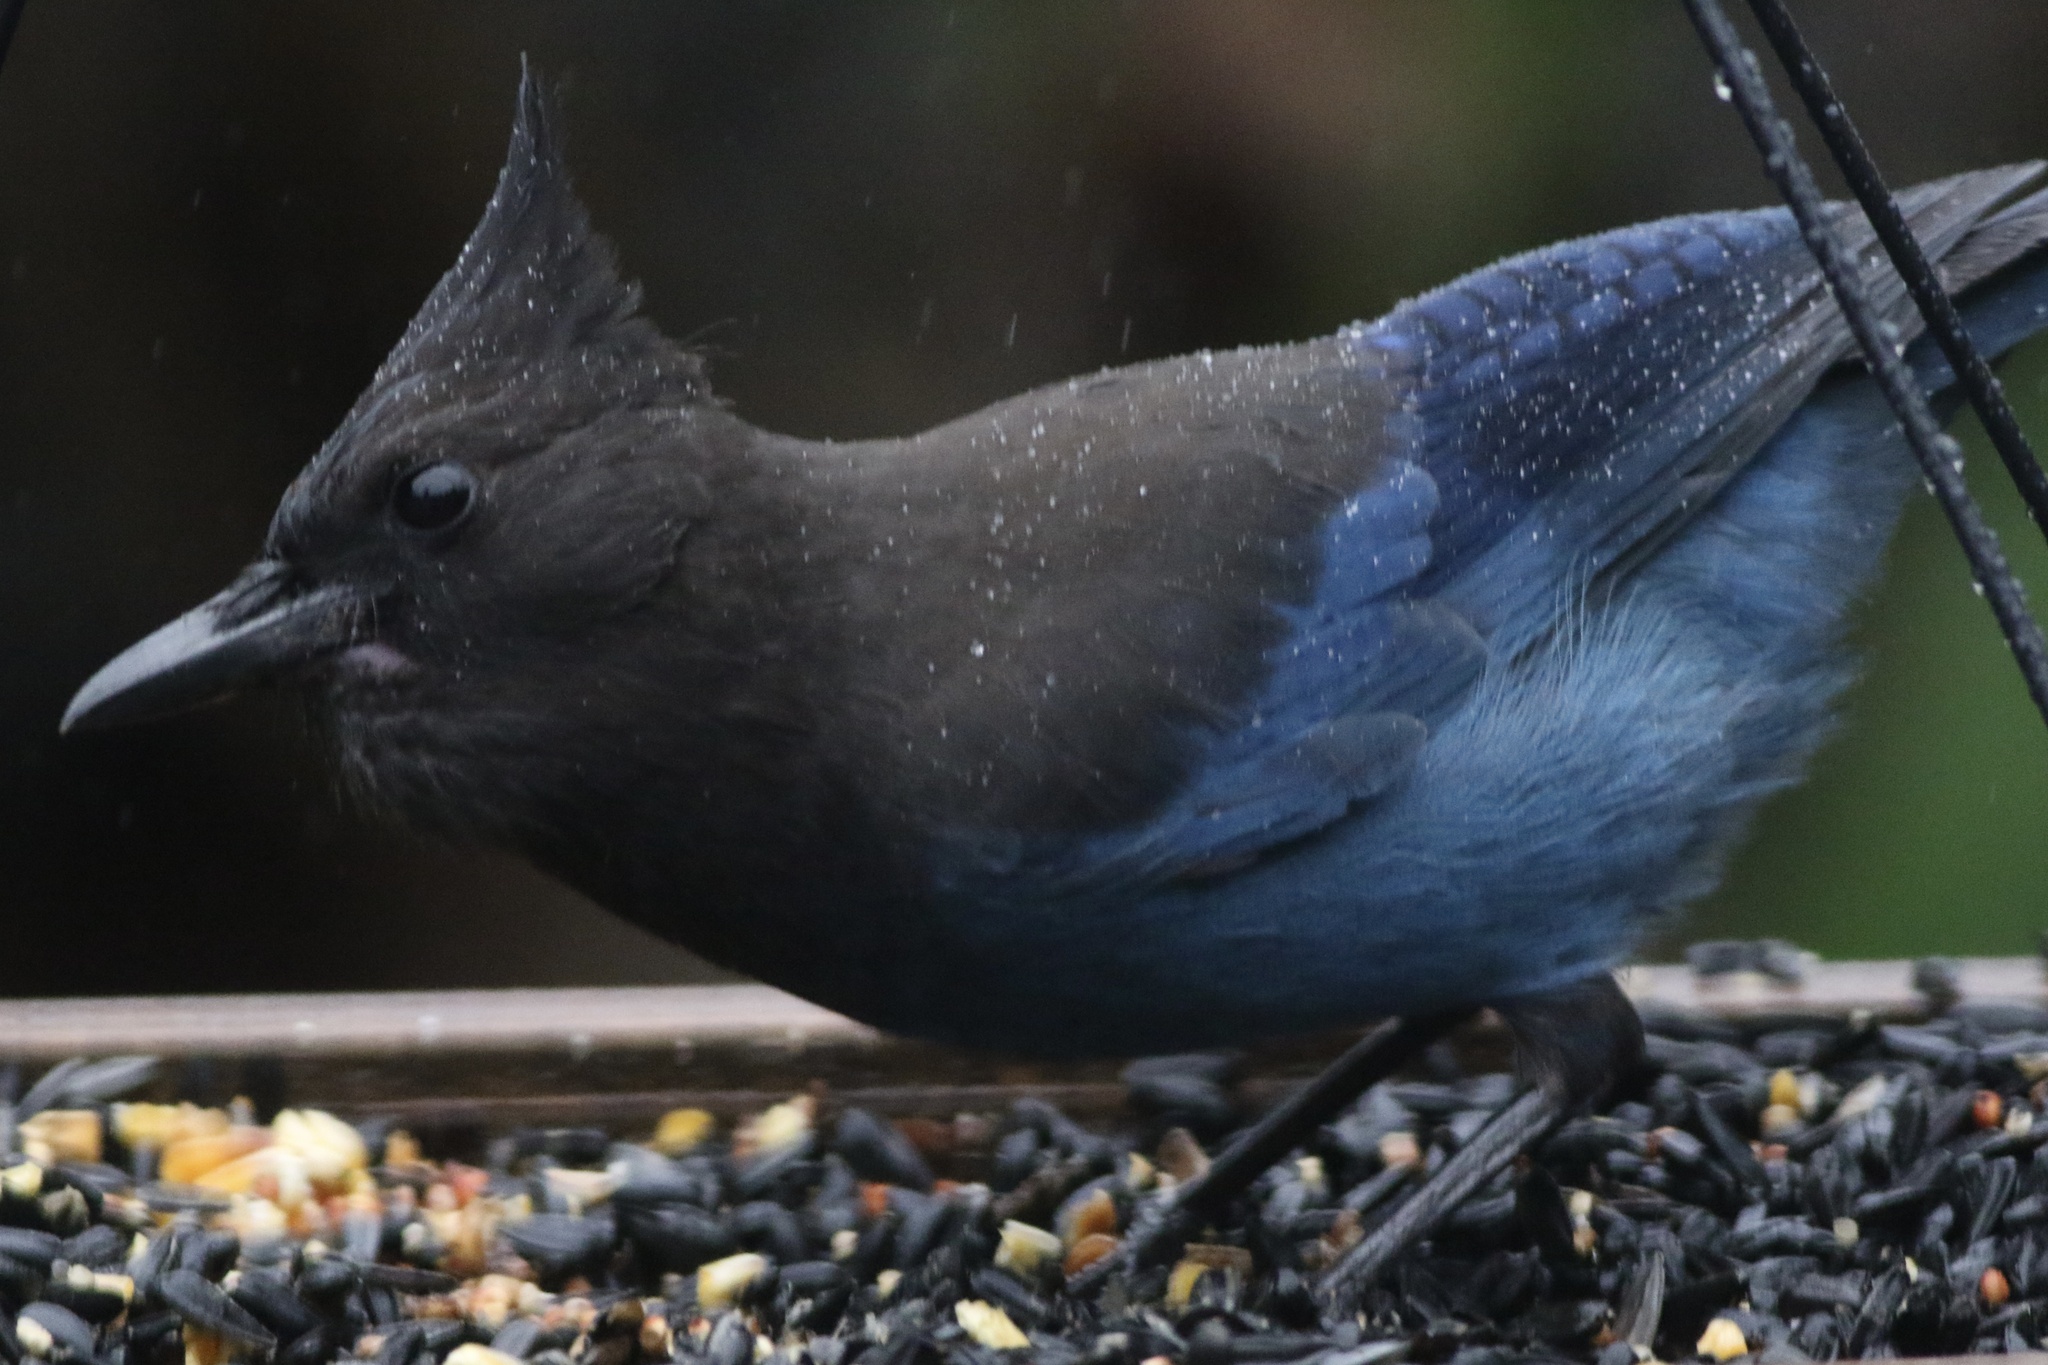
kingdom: Animalia
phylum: Chordata
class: Aves
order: Passeriformes
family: Corvidae
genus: Cyanocitta
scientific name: Cyanocitta stelleri
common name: Steller's jay
